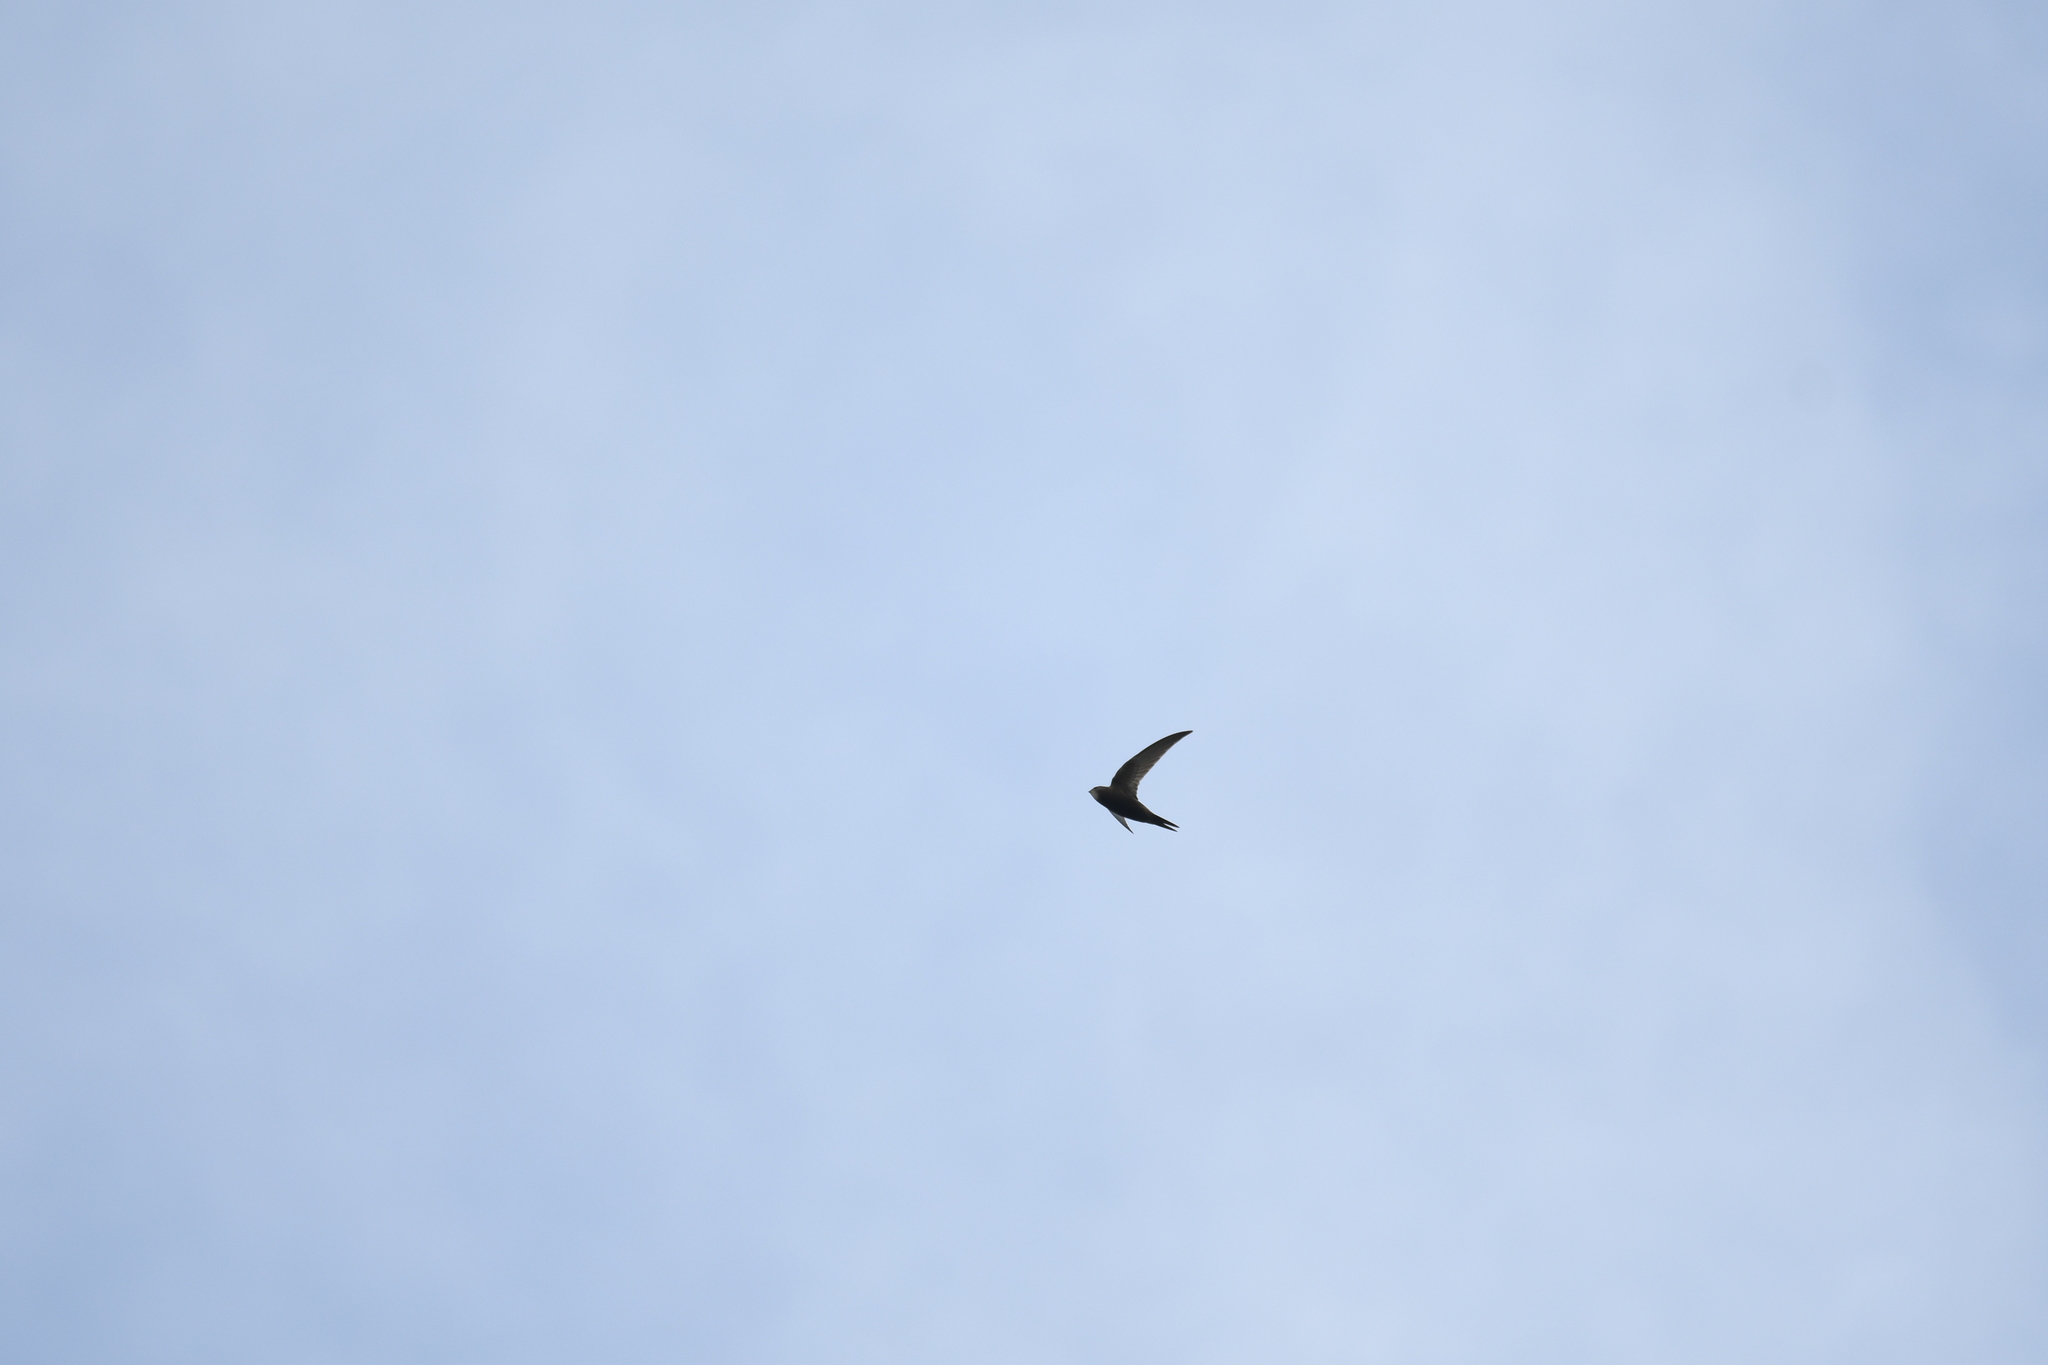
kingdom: Animalia
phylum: Chordata
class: Aves
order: Apodiformes
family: Apodidae
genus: Apus
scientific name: Apus apus
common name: Common swift
